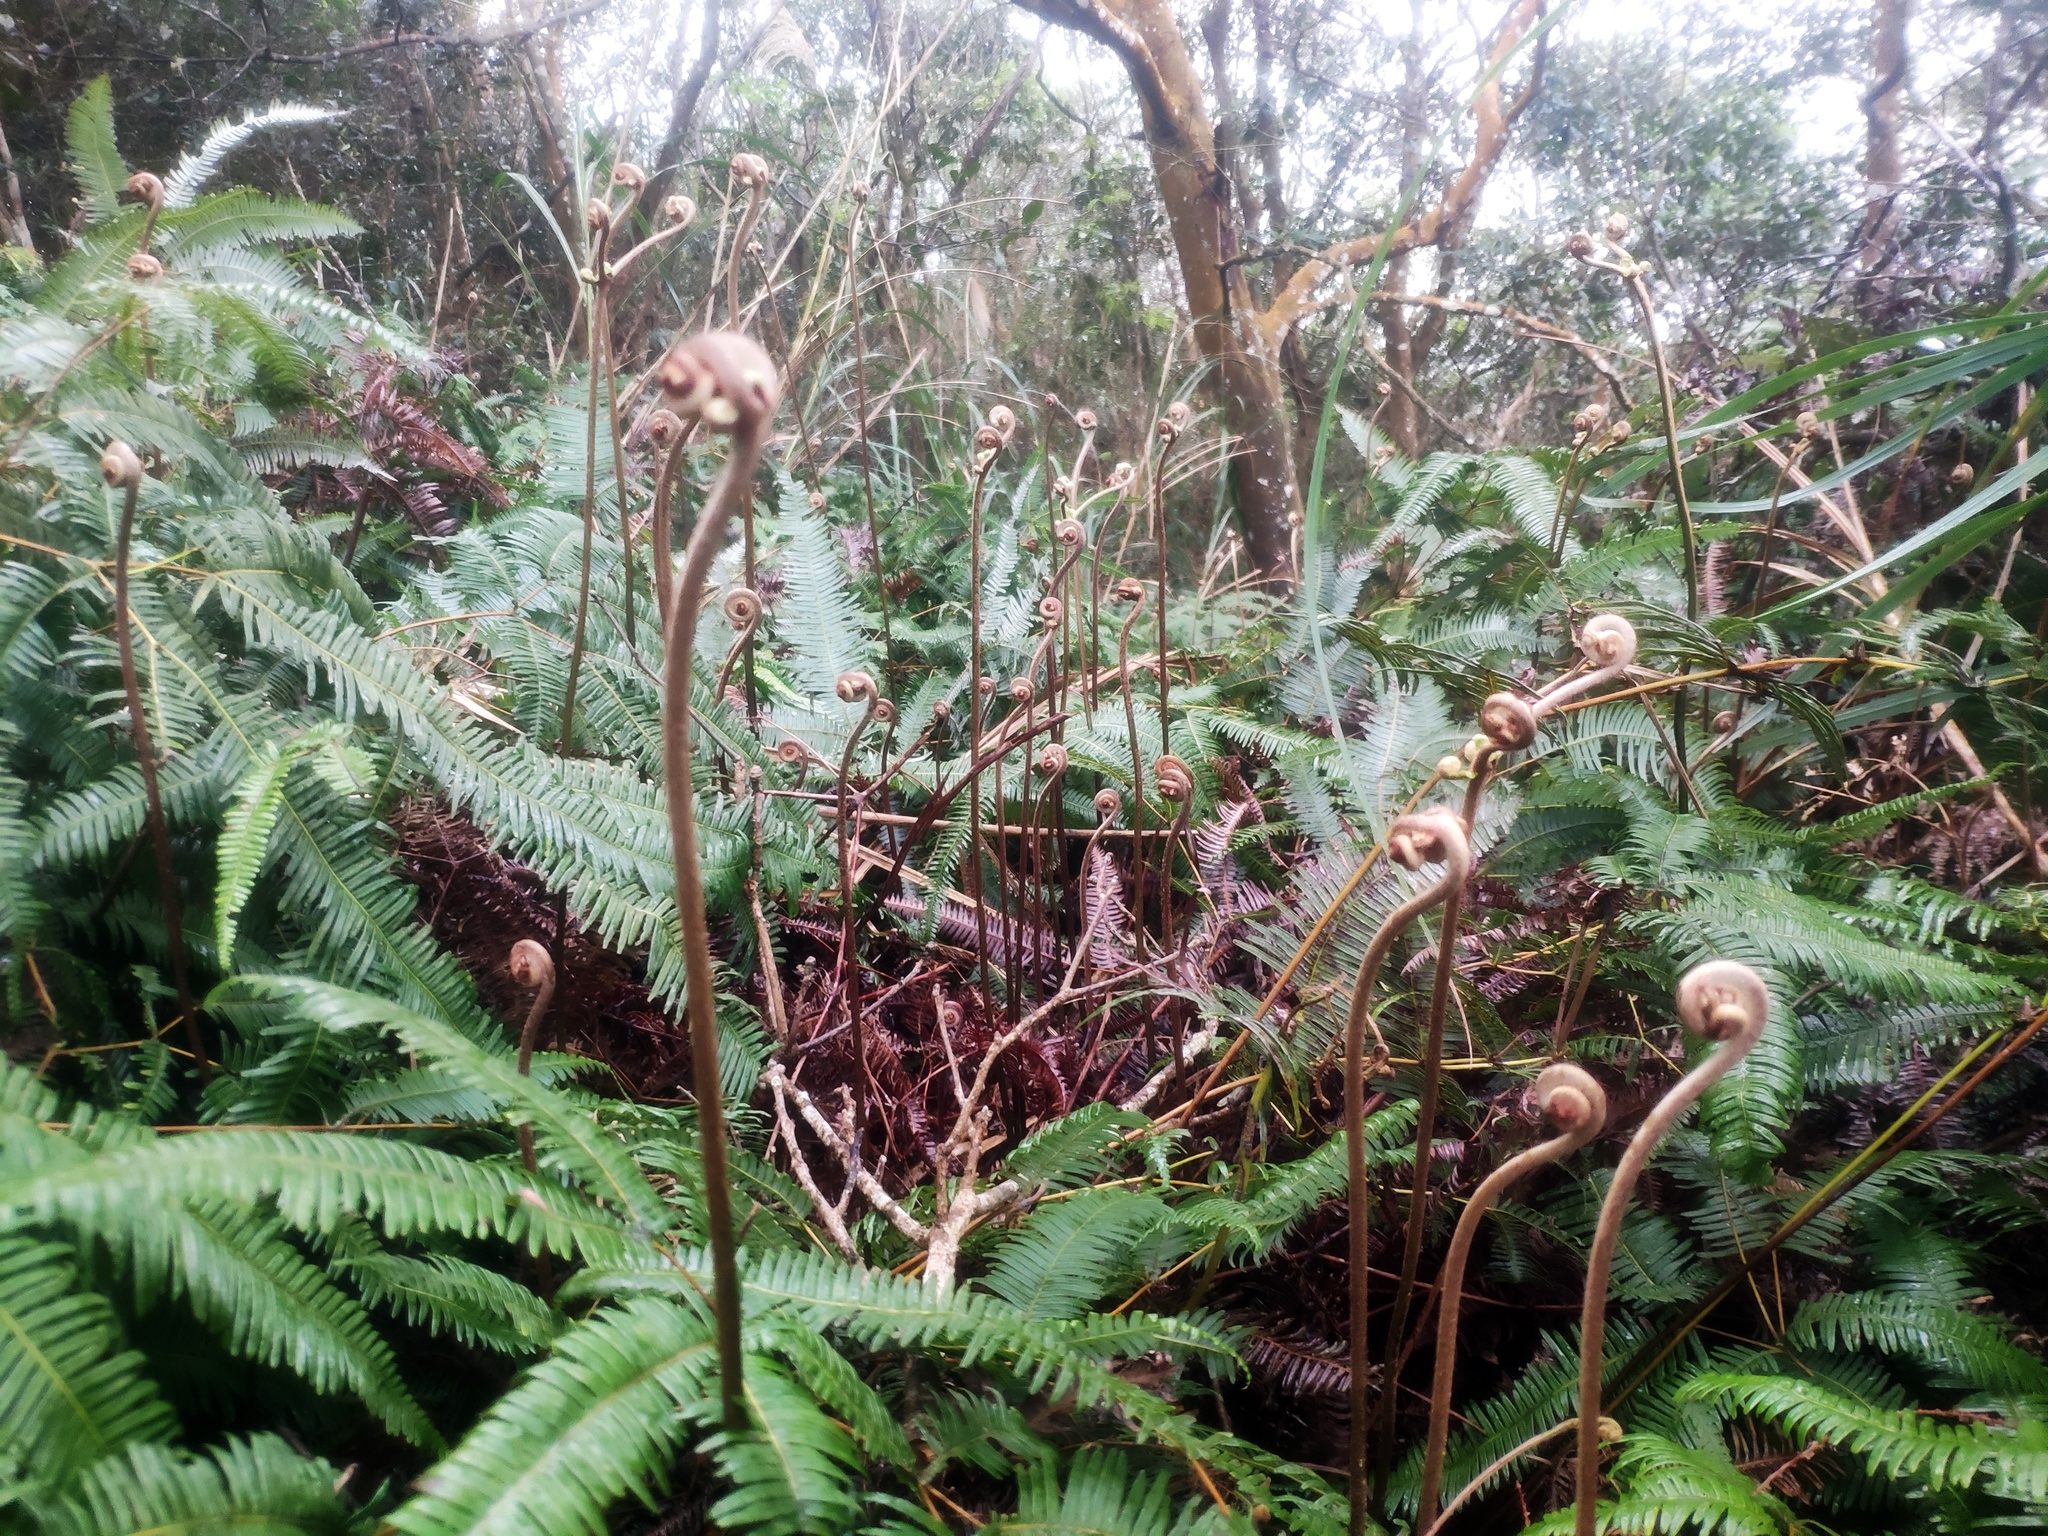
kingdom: Plantae
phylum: Tracheophyta
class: Polypodiopsida
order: Gleicheniales
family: Gleicheniaceae
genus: Dicranopteris
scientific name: Dicranopteris linearis
